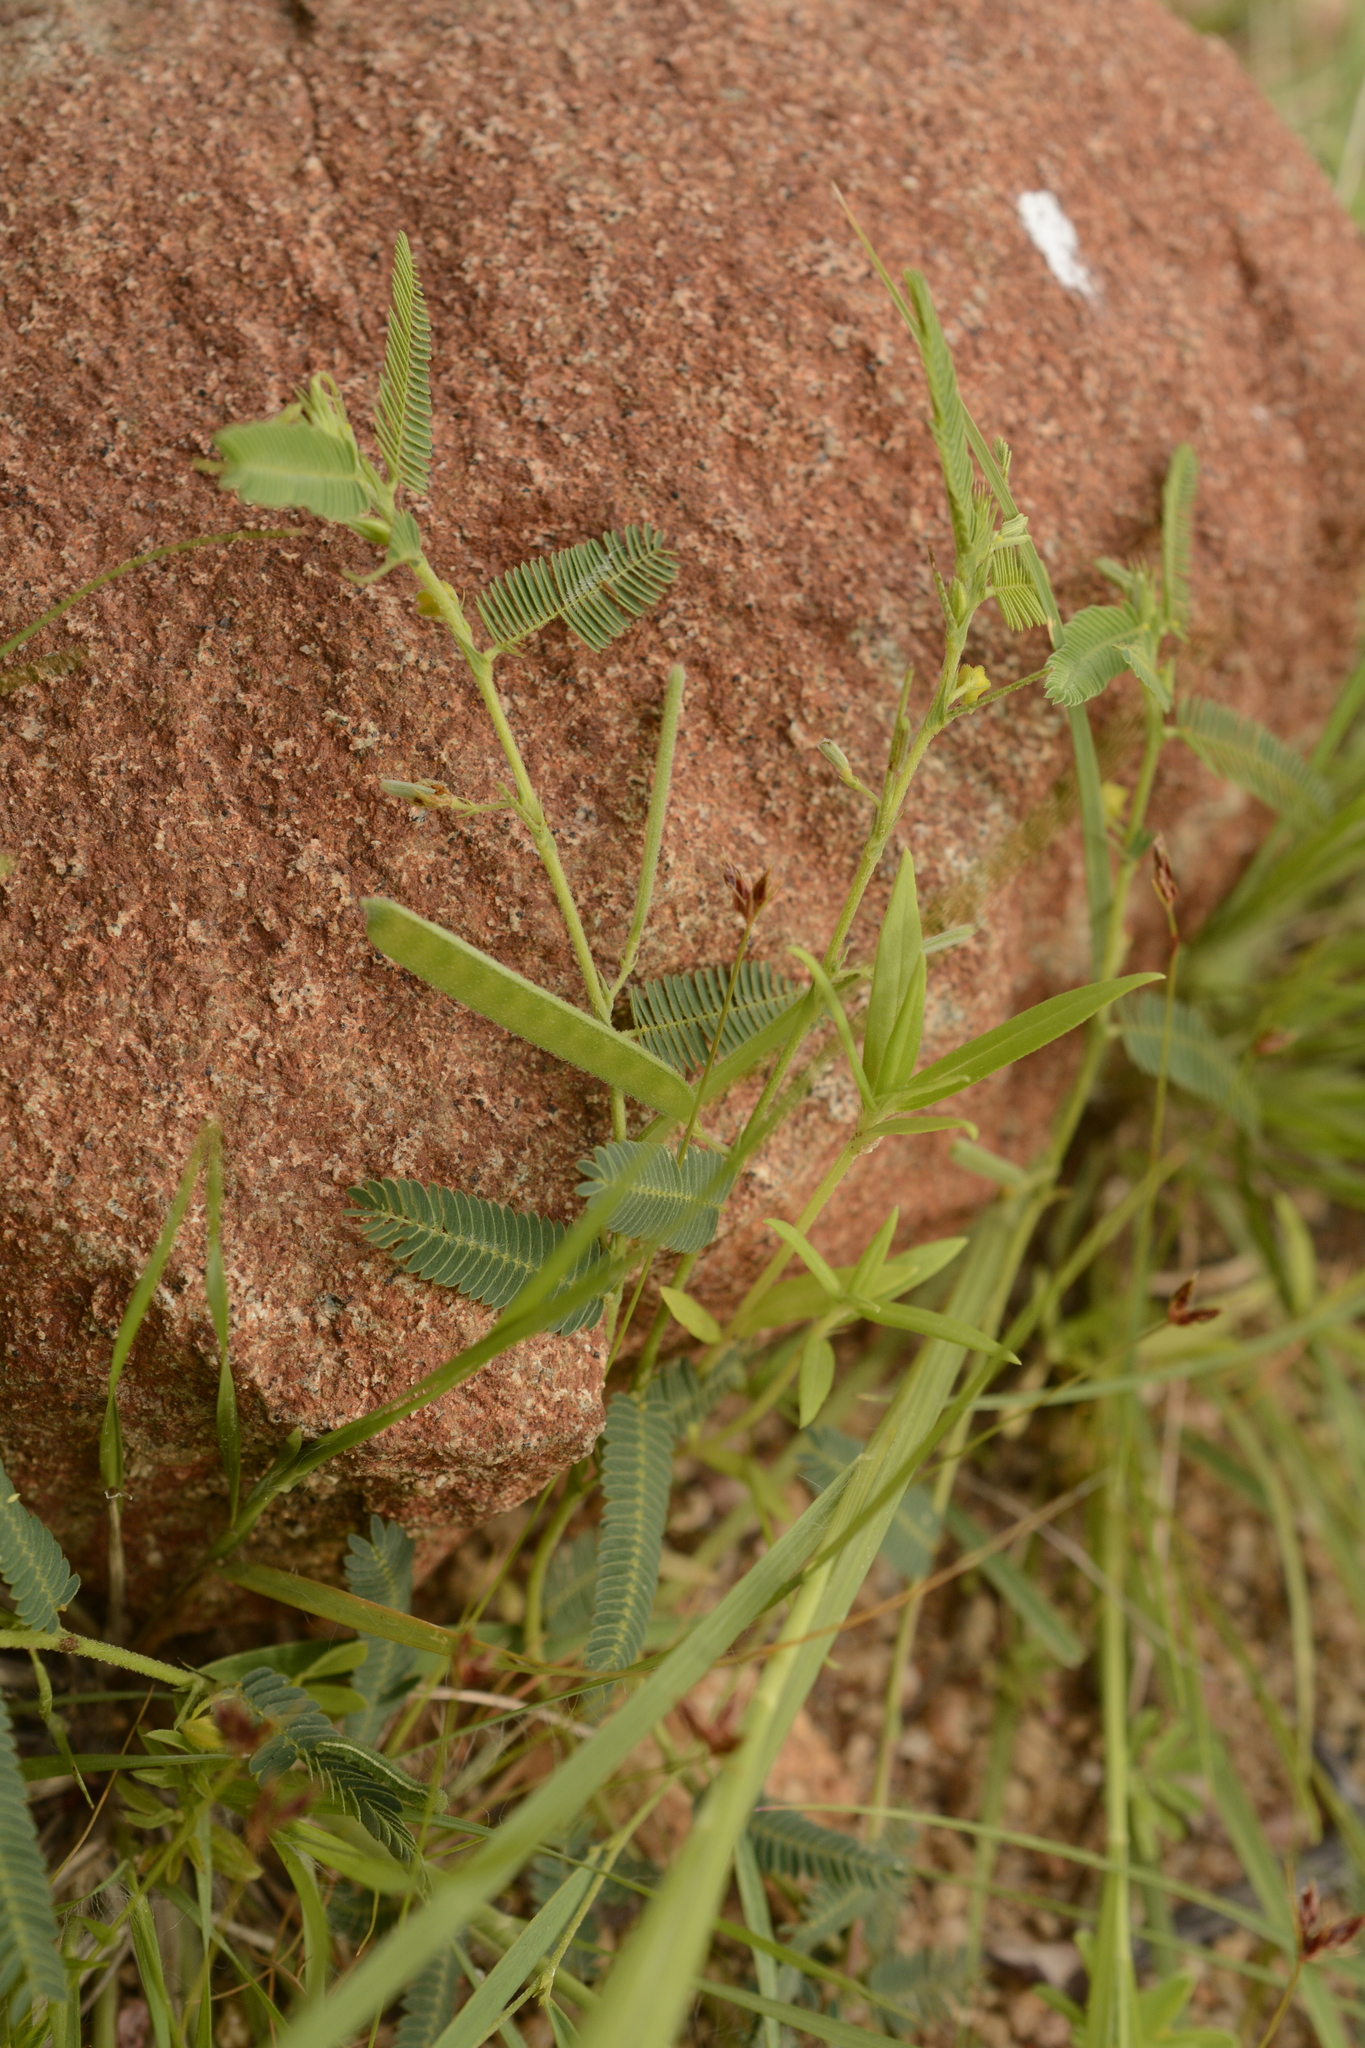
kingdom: Plantae
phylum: Tracheophyta
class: Magnoliopsida
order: Fabales
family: Fabaceae
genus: Chamaecrista
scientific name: Chamaecrista pumila
